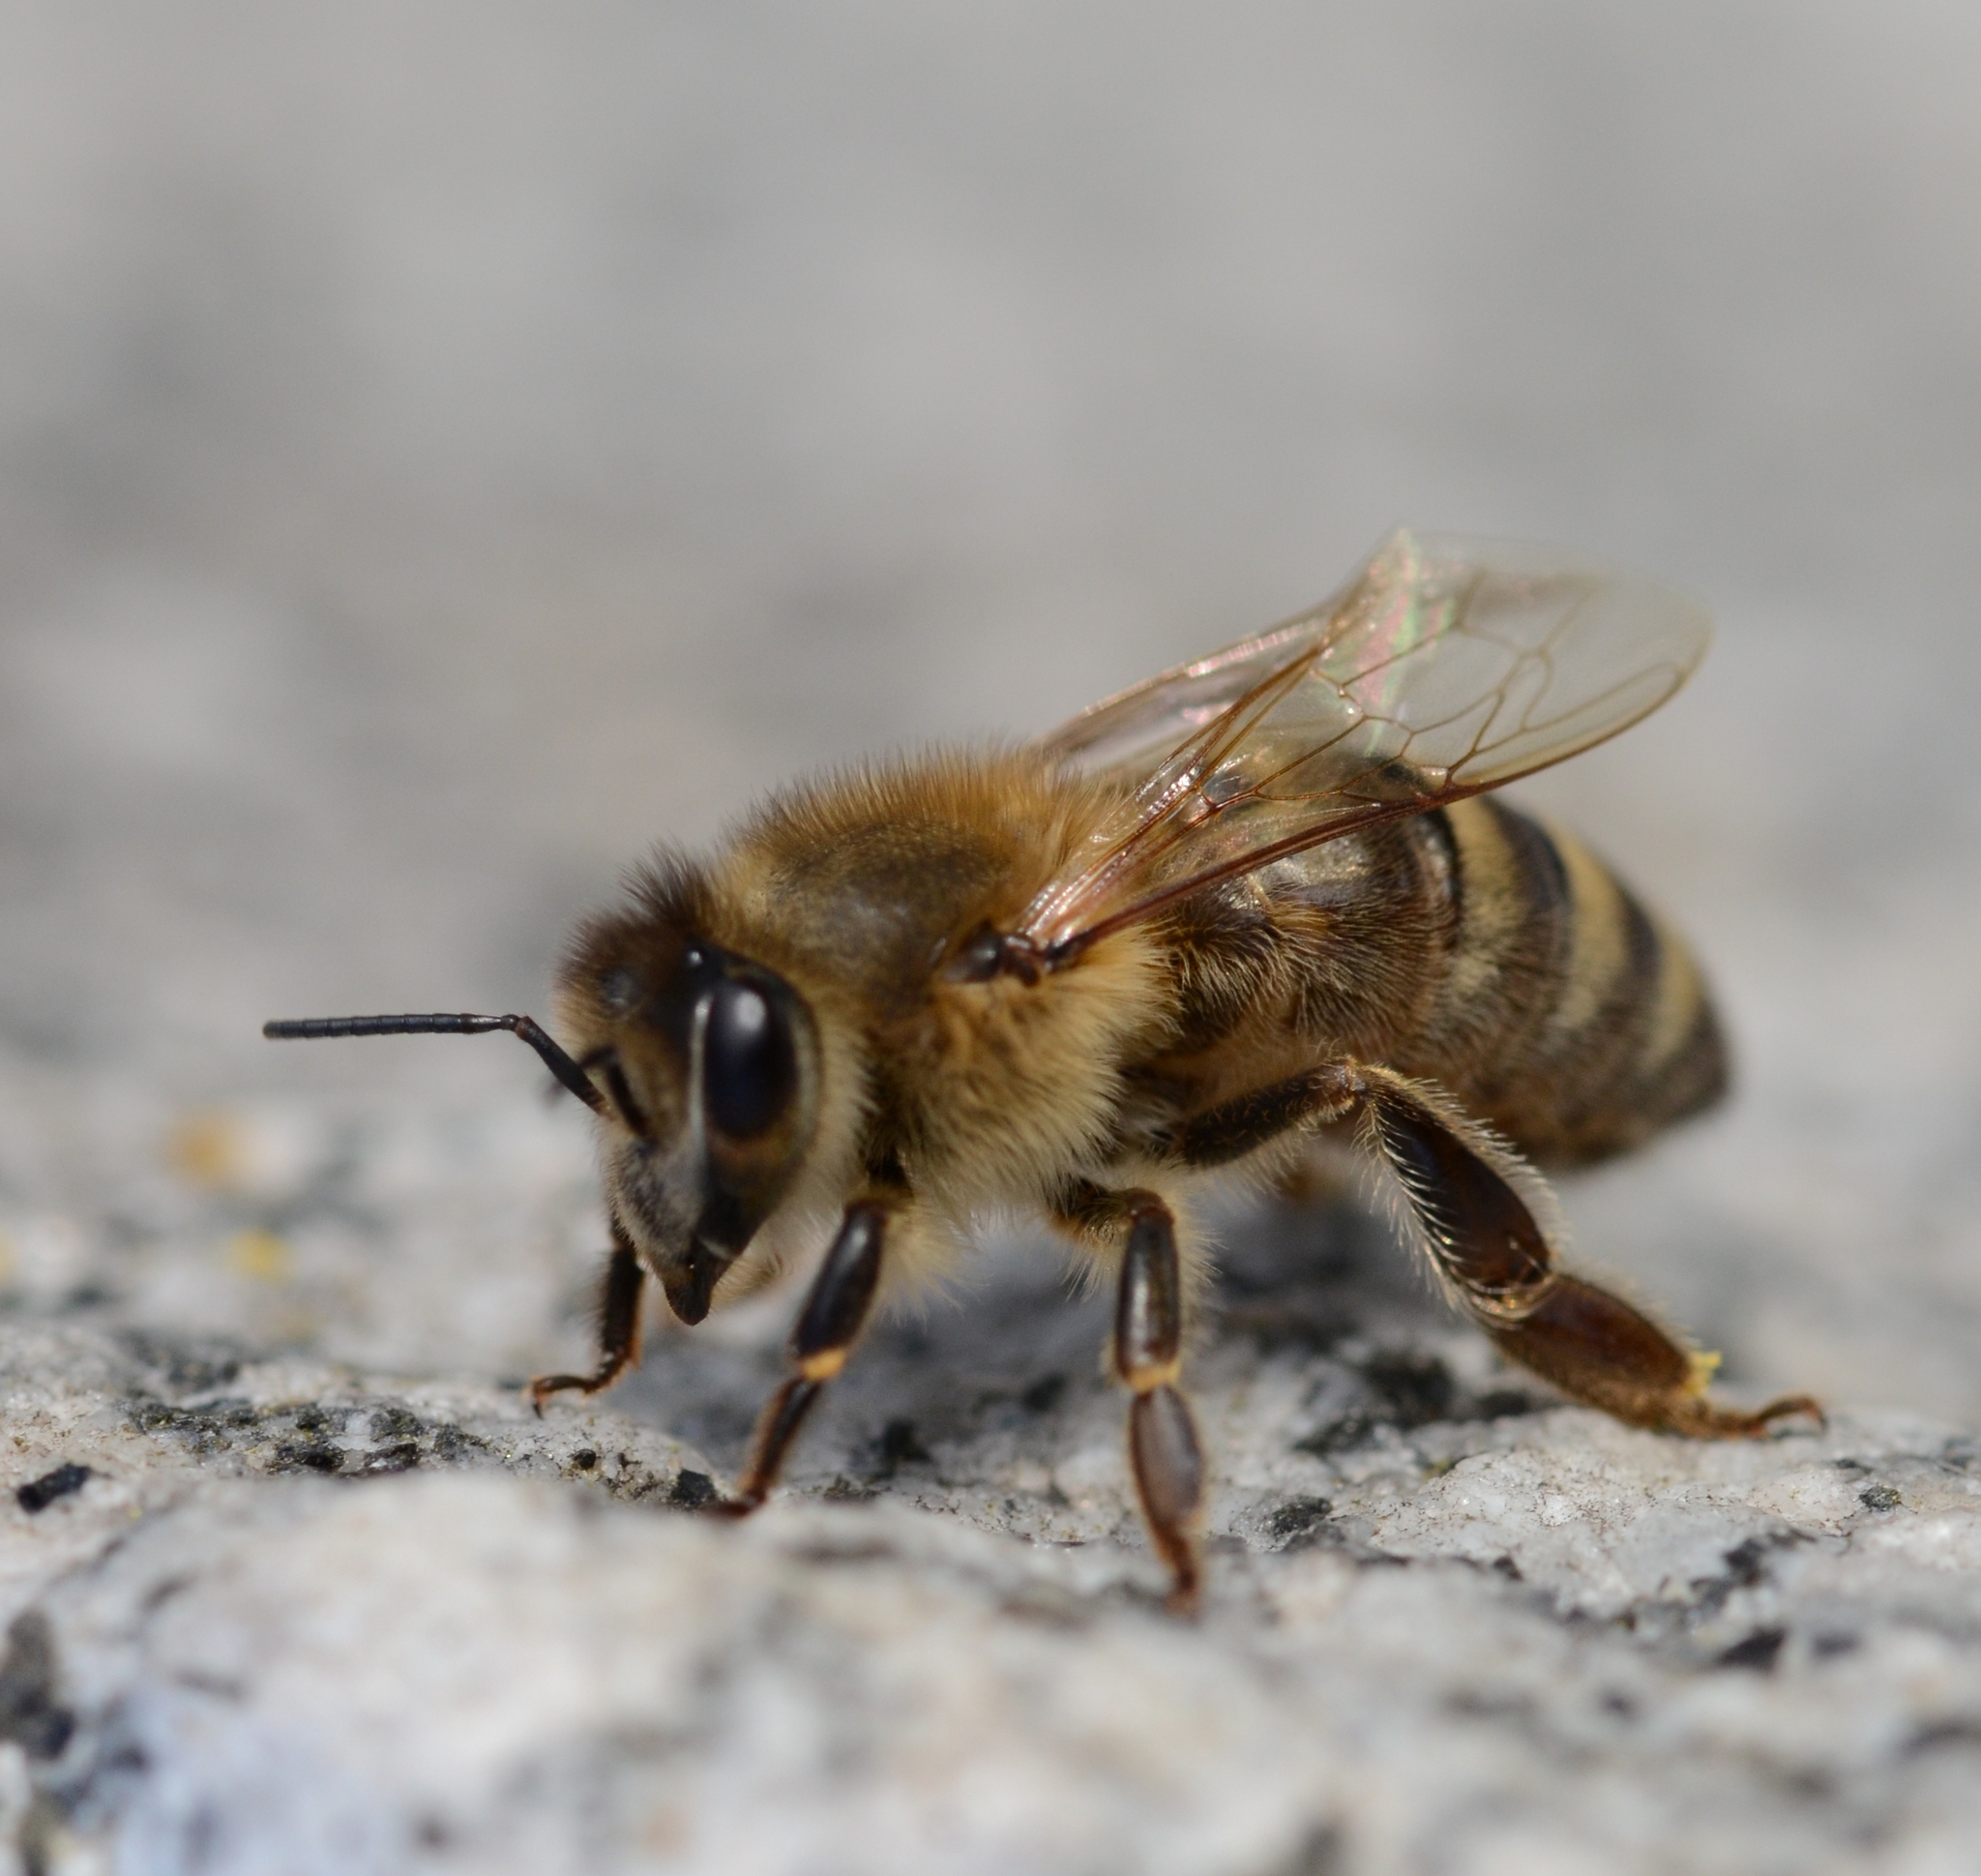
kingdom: Animalia
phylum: Arthropoda
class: Insecta
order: Hymenoptera
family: Apidae
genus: Apis
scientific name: Apis mellifera
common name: Honey bee
